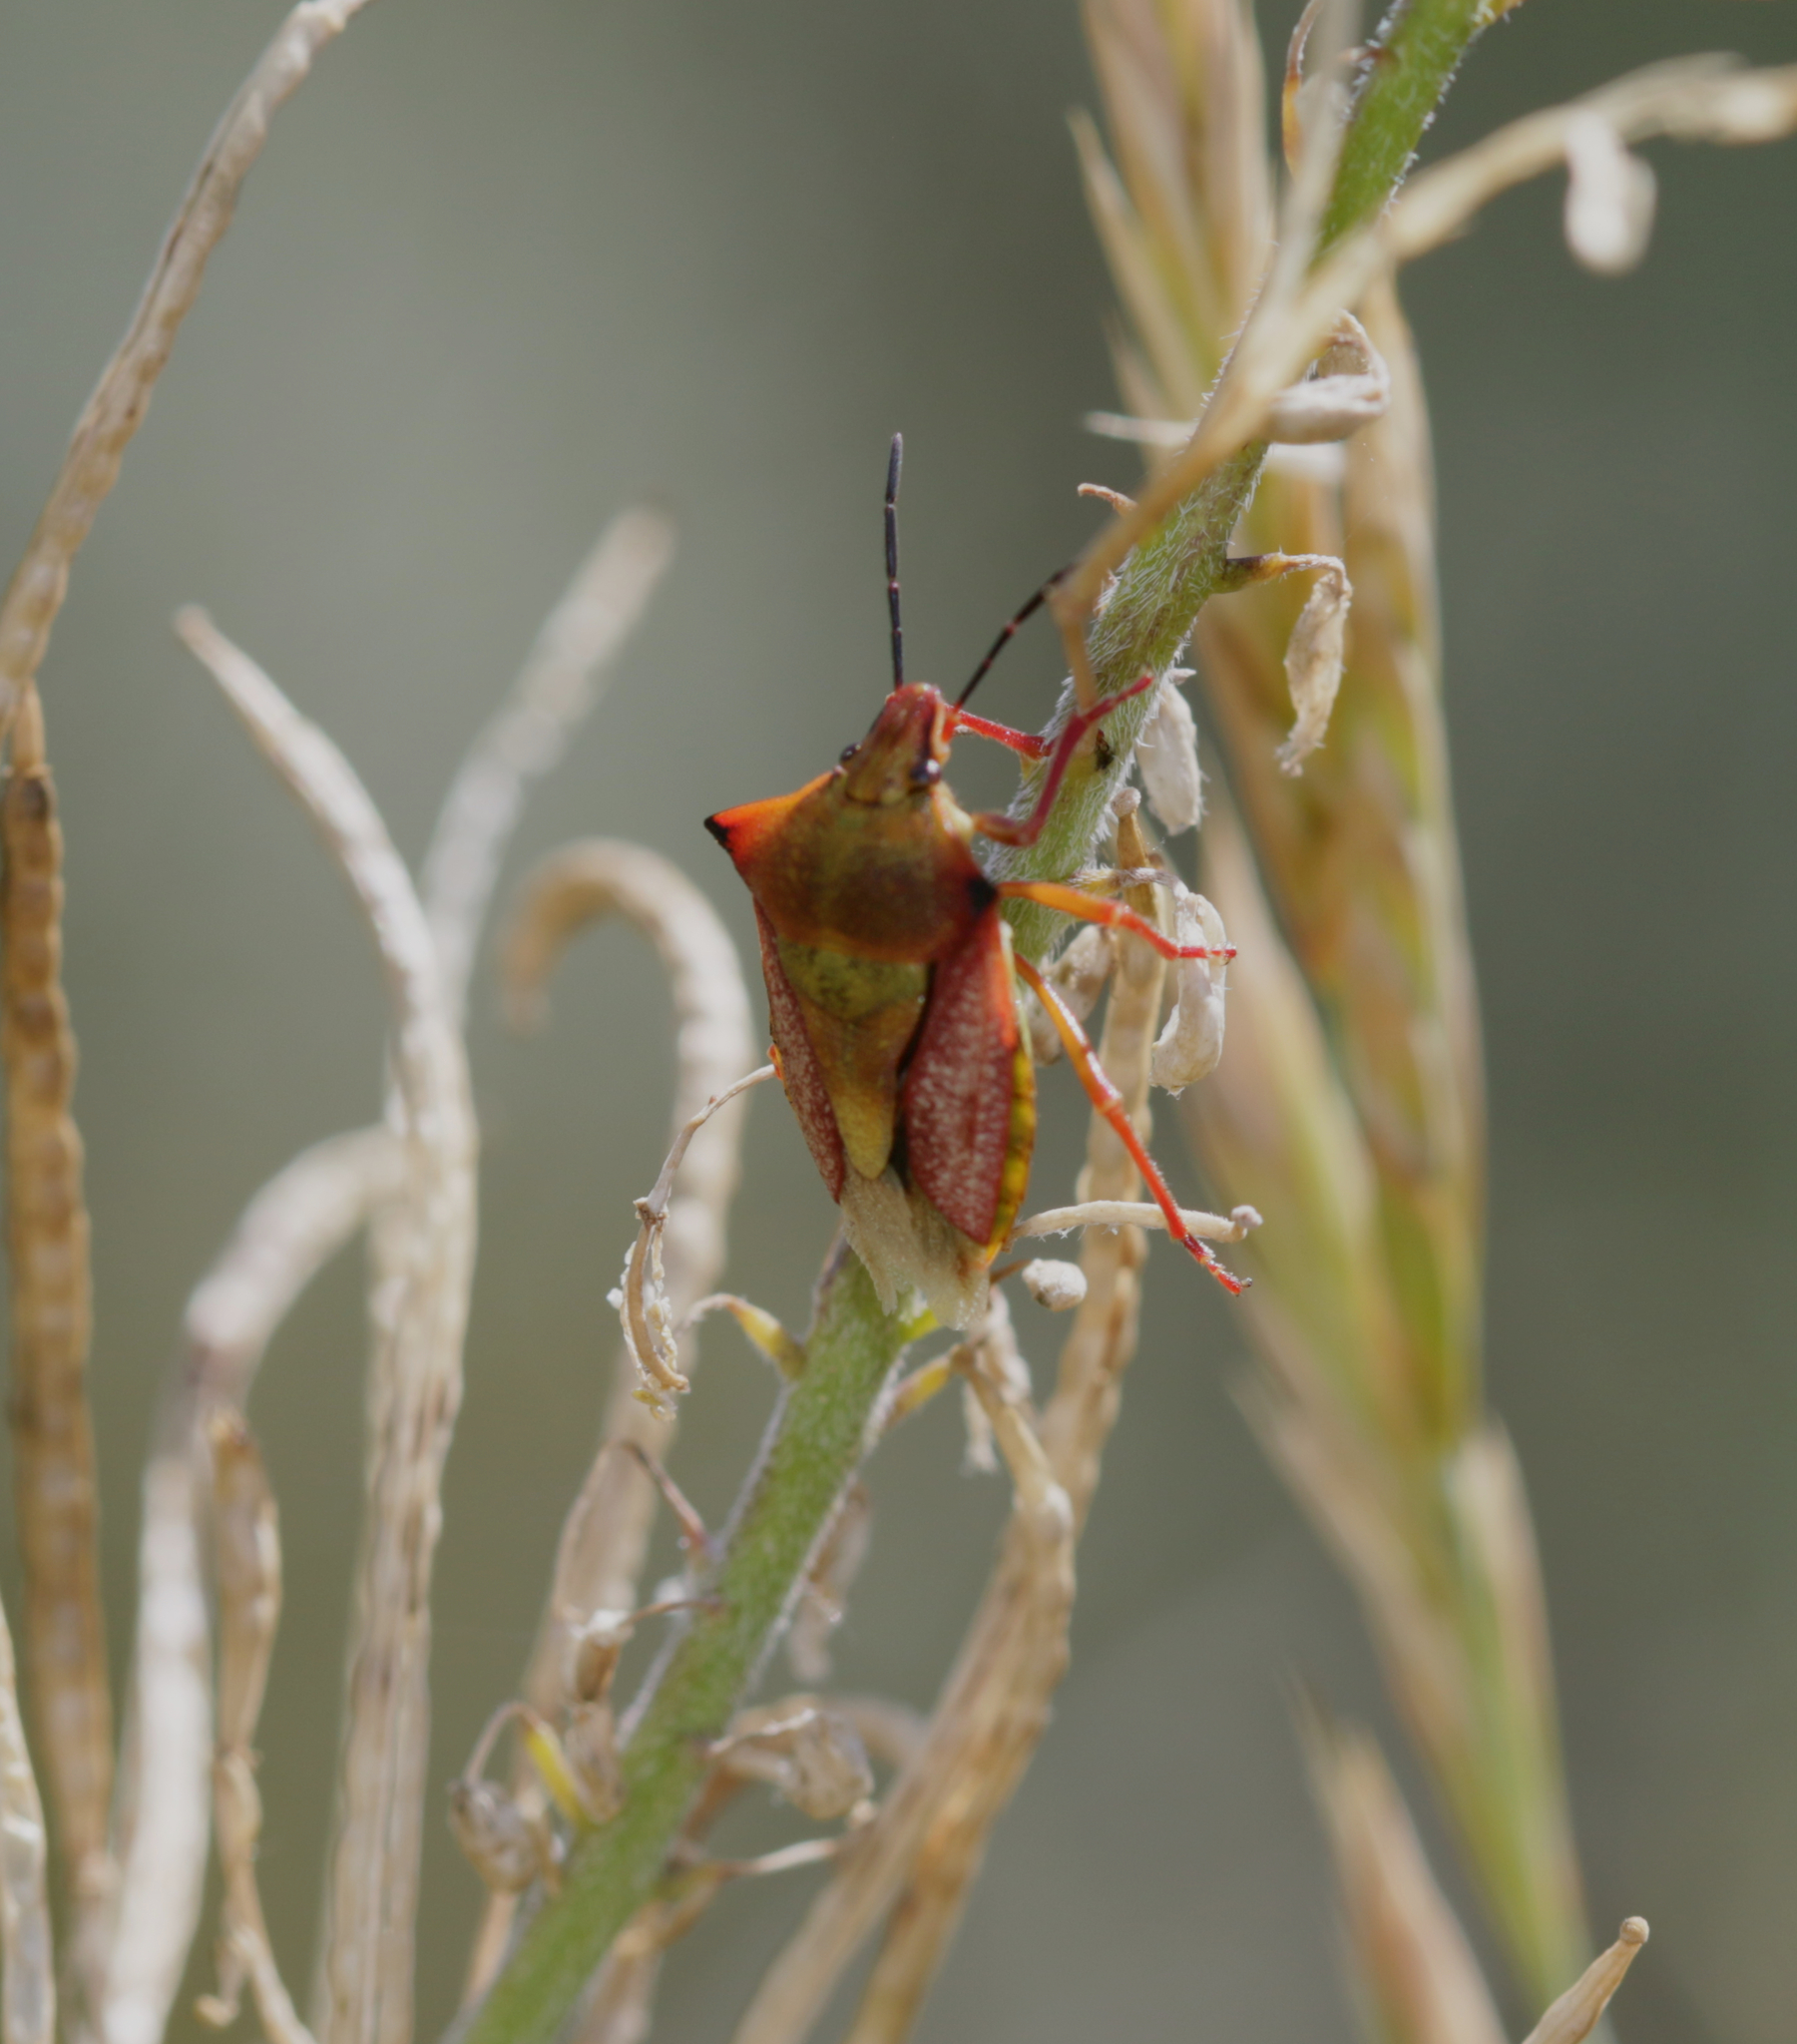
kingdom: Animalia
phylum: Arthropoda
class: Insecta
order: Hemiptera
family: Pentatomidae
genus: Carpocoris
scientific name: Carpocoris mediterraneus
